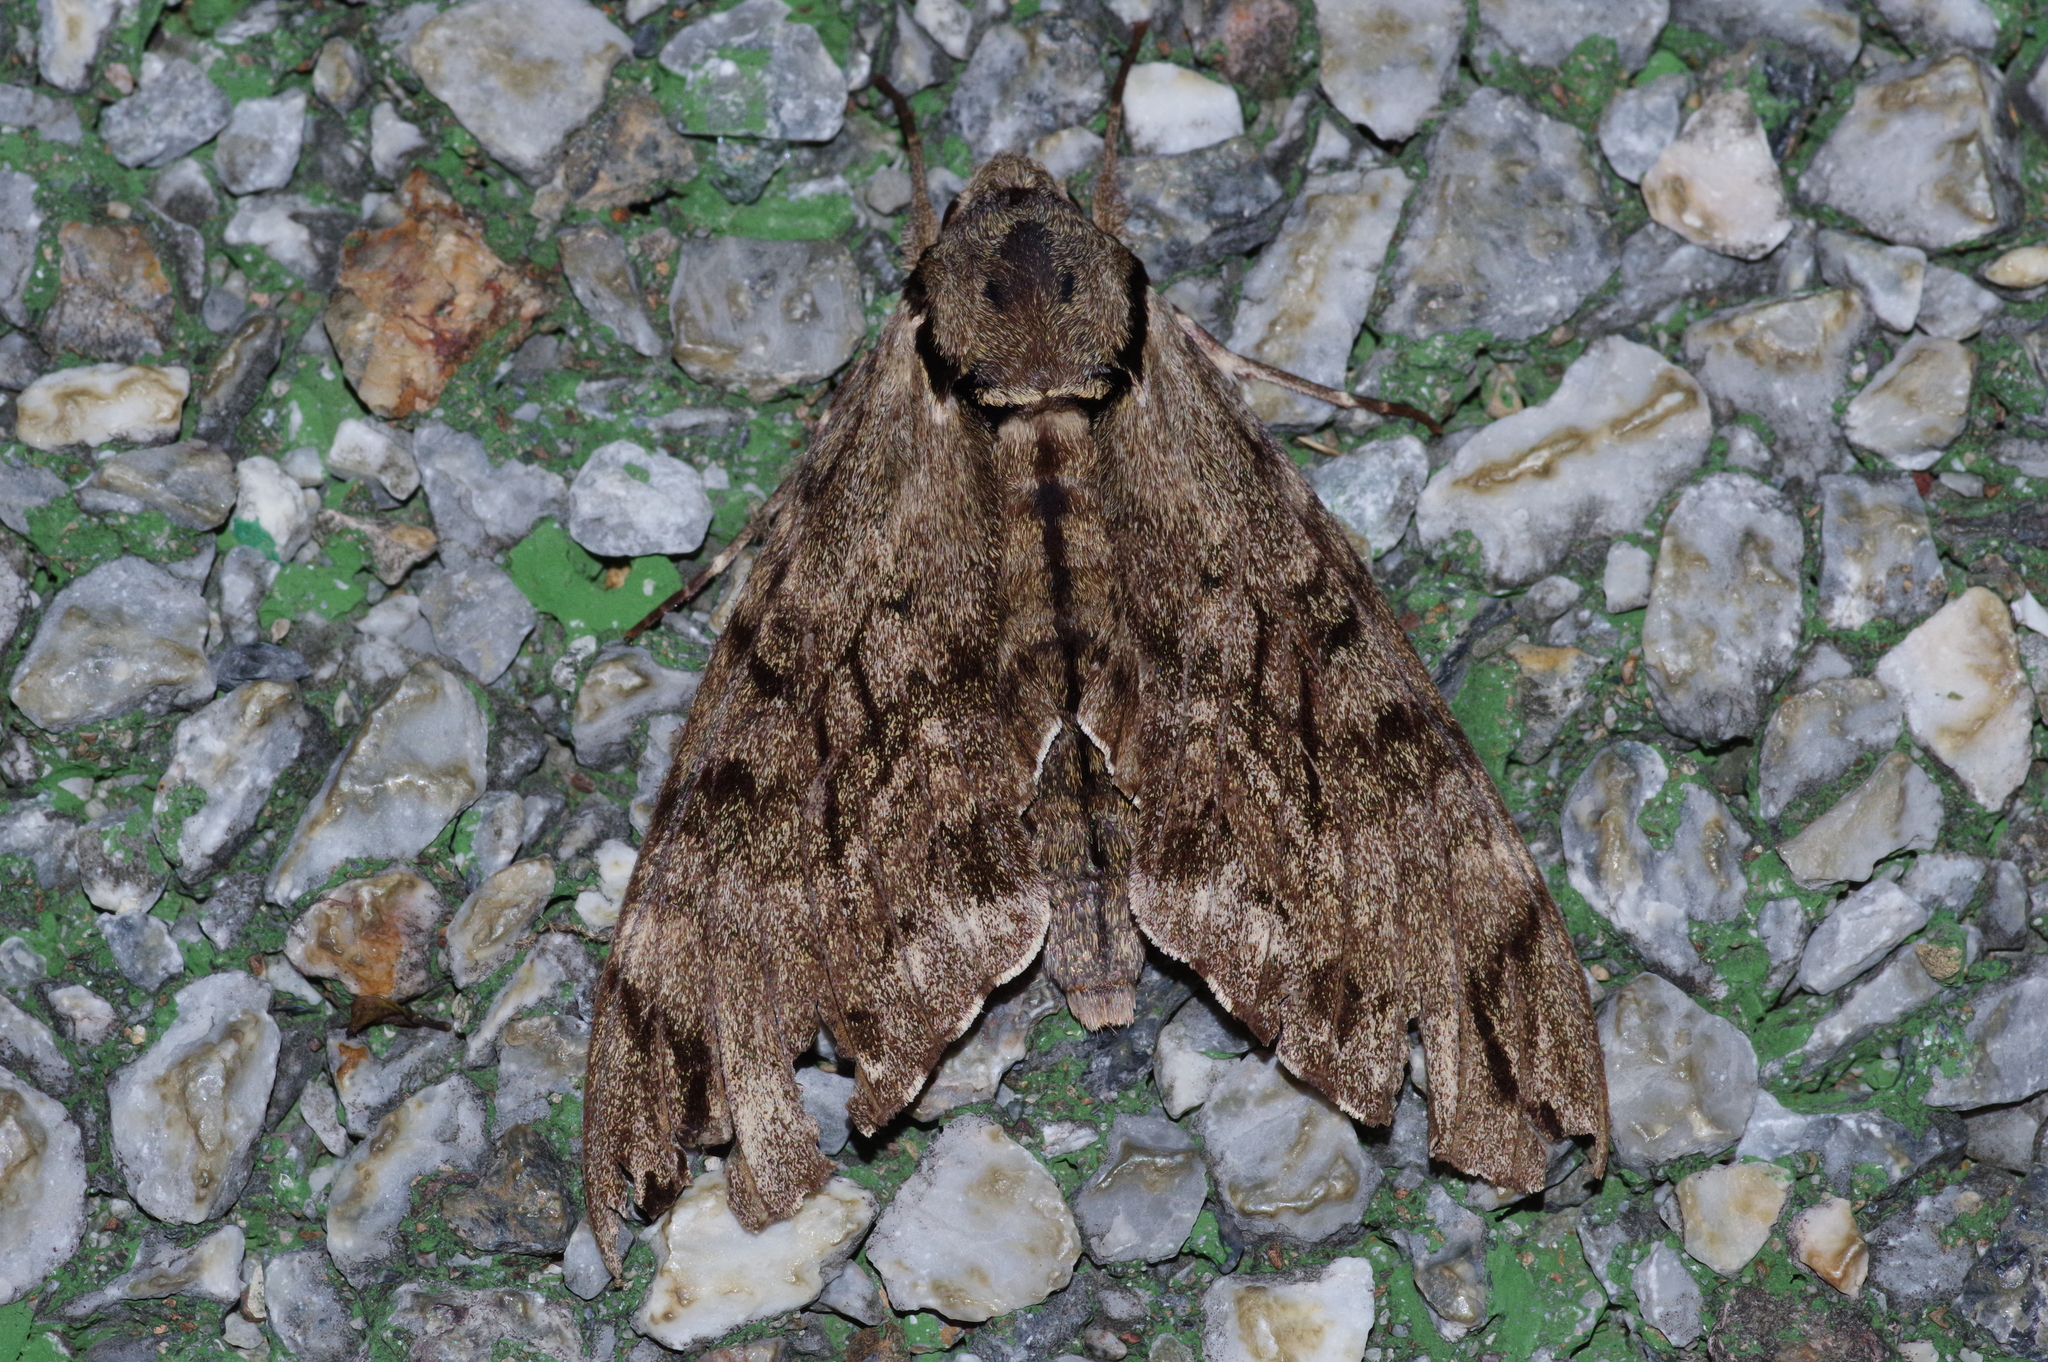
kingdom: Animalia
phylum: Arthropoda
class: Insecta
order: Lepidoptera
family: Sphingidae
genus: Psilogramma
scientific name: Psilogramma increta
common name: Gray hawk moth
